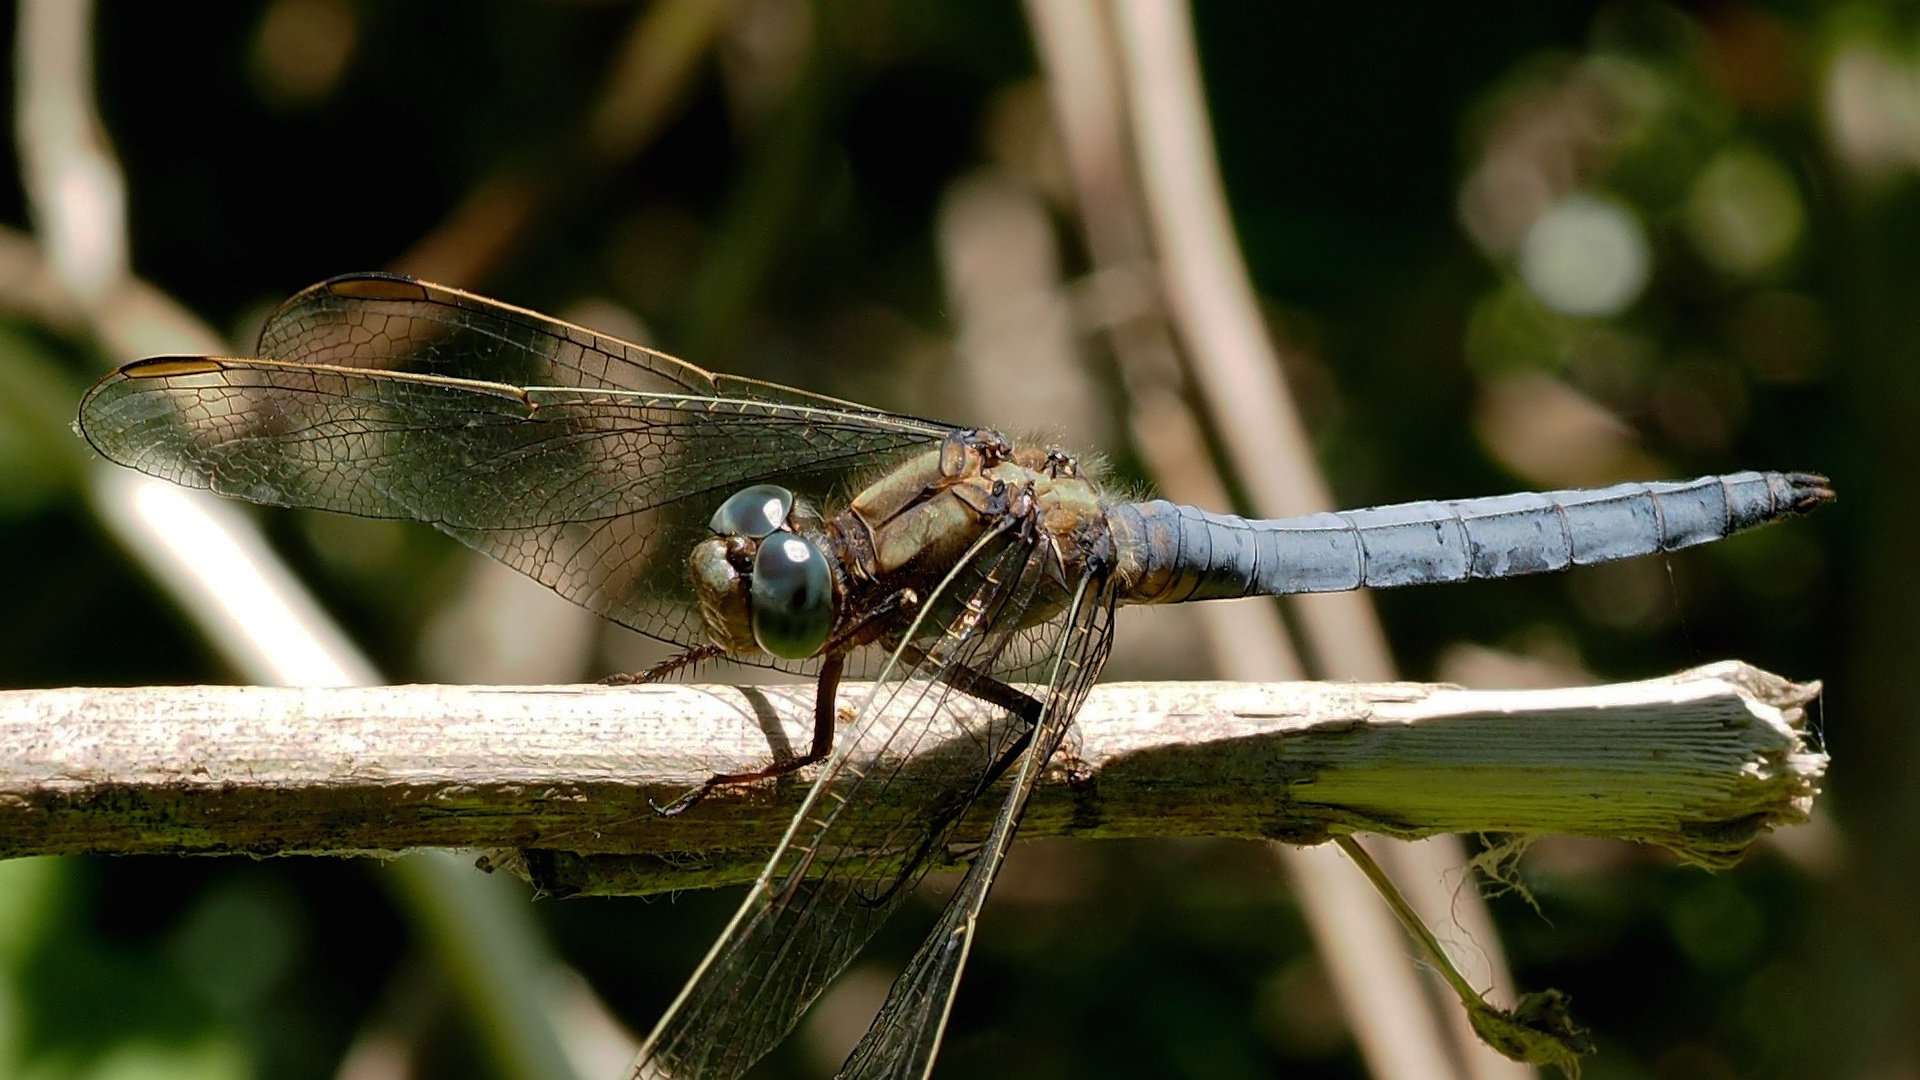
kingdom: Animalia
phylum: Arthropoda
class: Insecta
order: Odonata
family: Libellulidae
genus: Orthetrum
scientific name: Orthetrum coerulescens
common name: Keeled skimmer
